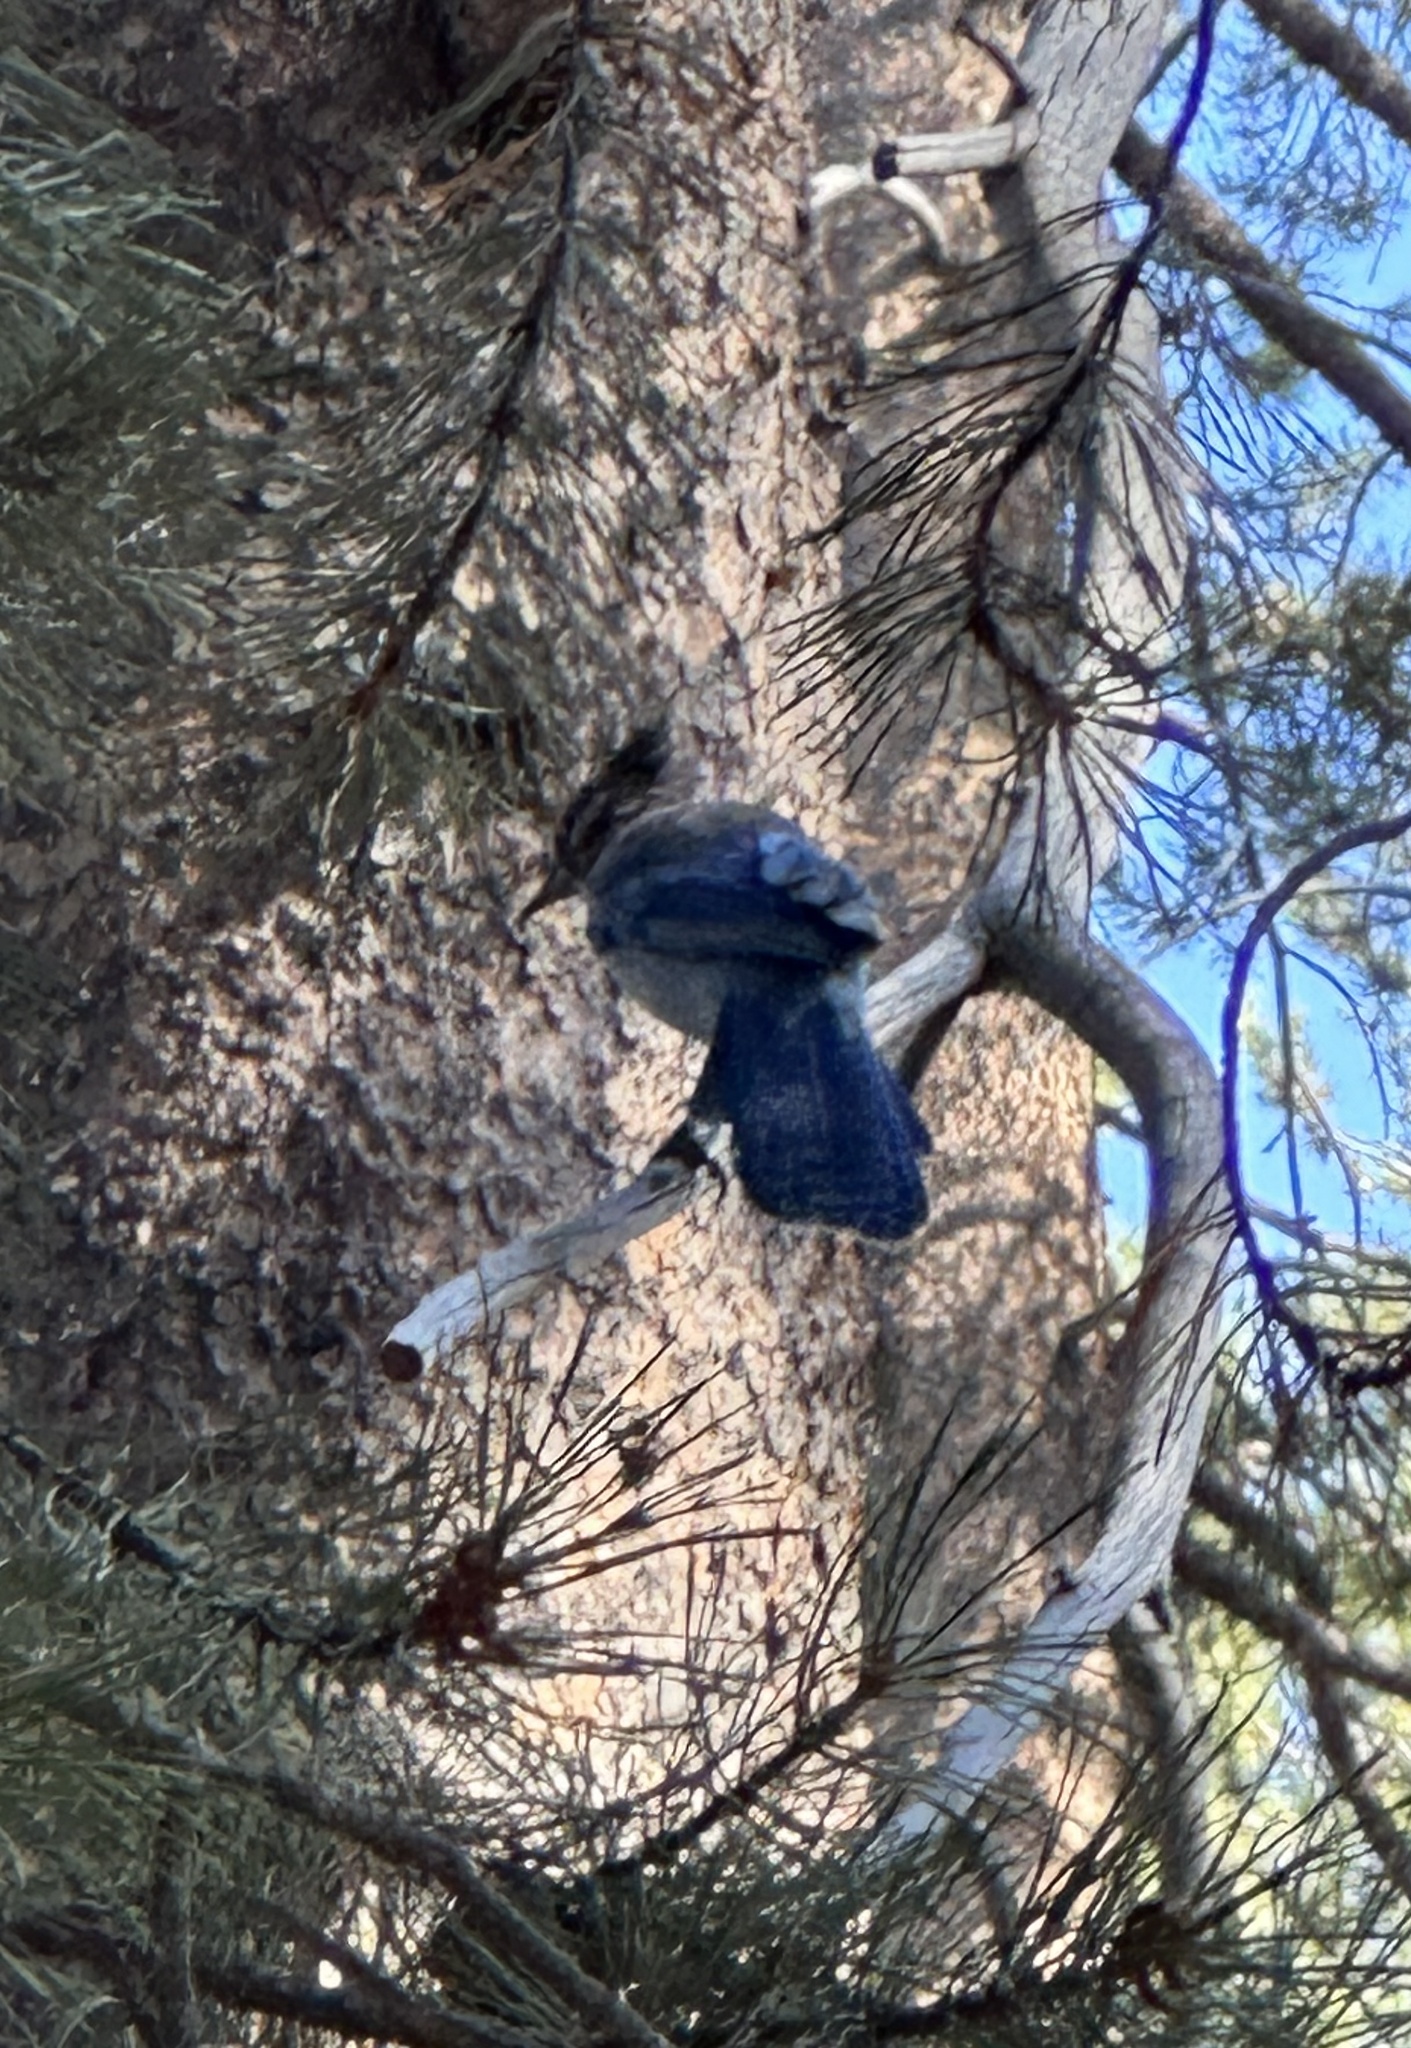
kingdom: Animalia
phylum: Chordata
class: Aves
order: Passeriformes
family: Corvidae
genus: Cyanocitta
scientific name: Cyanocitta stelleri
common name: Steller's jay
